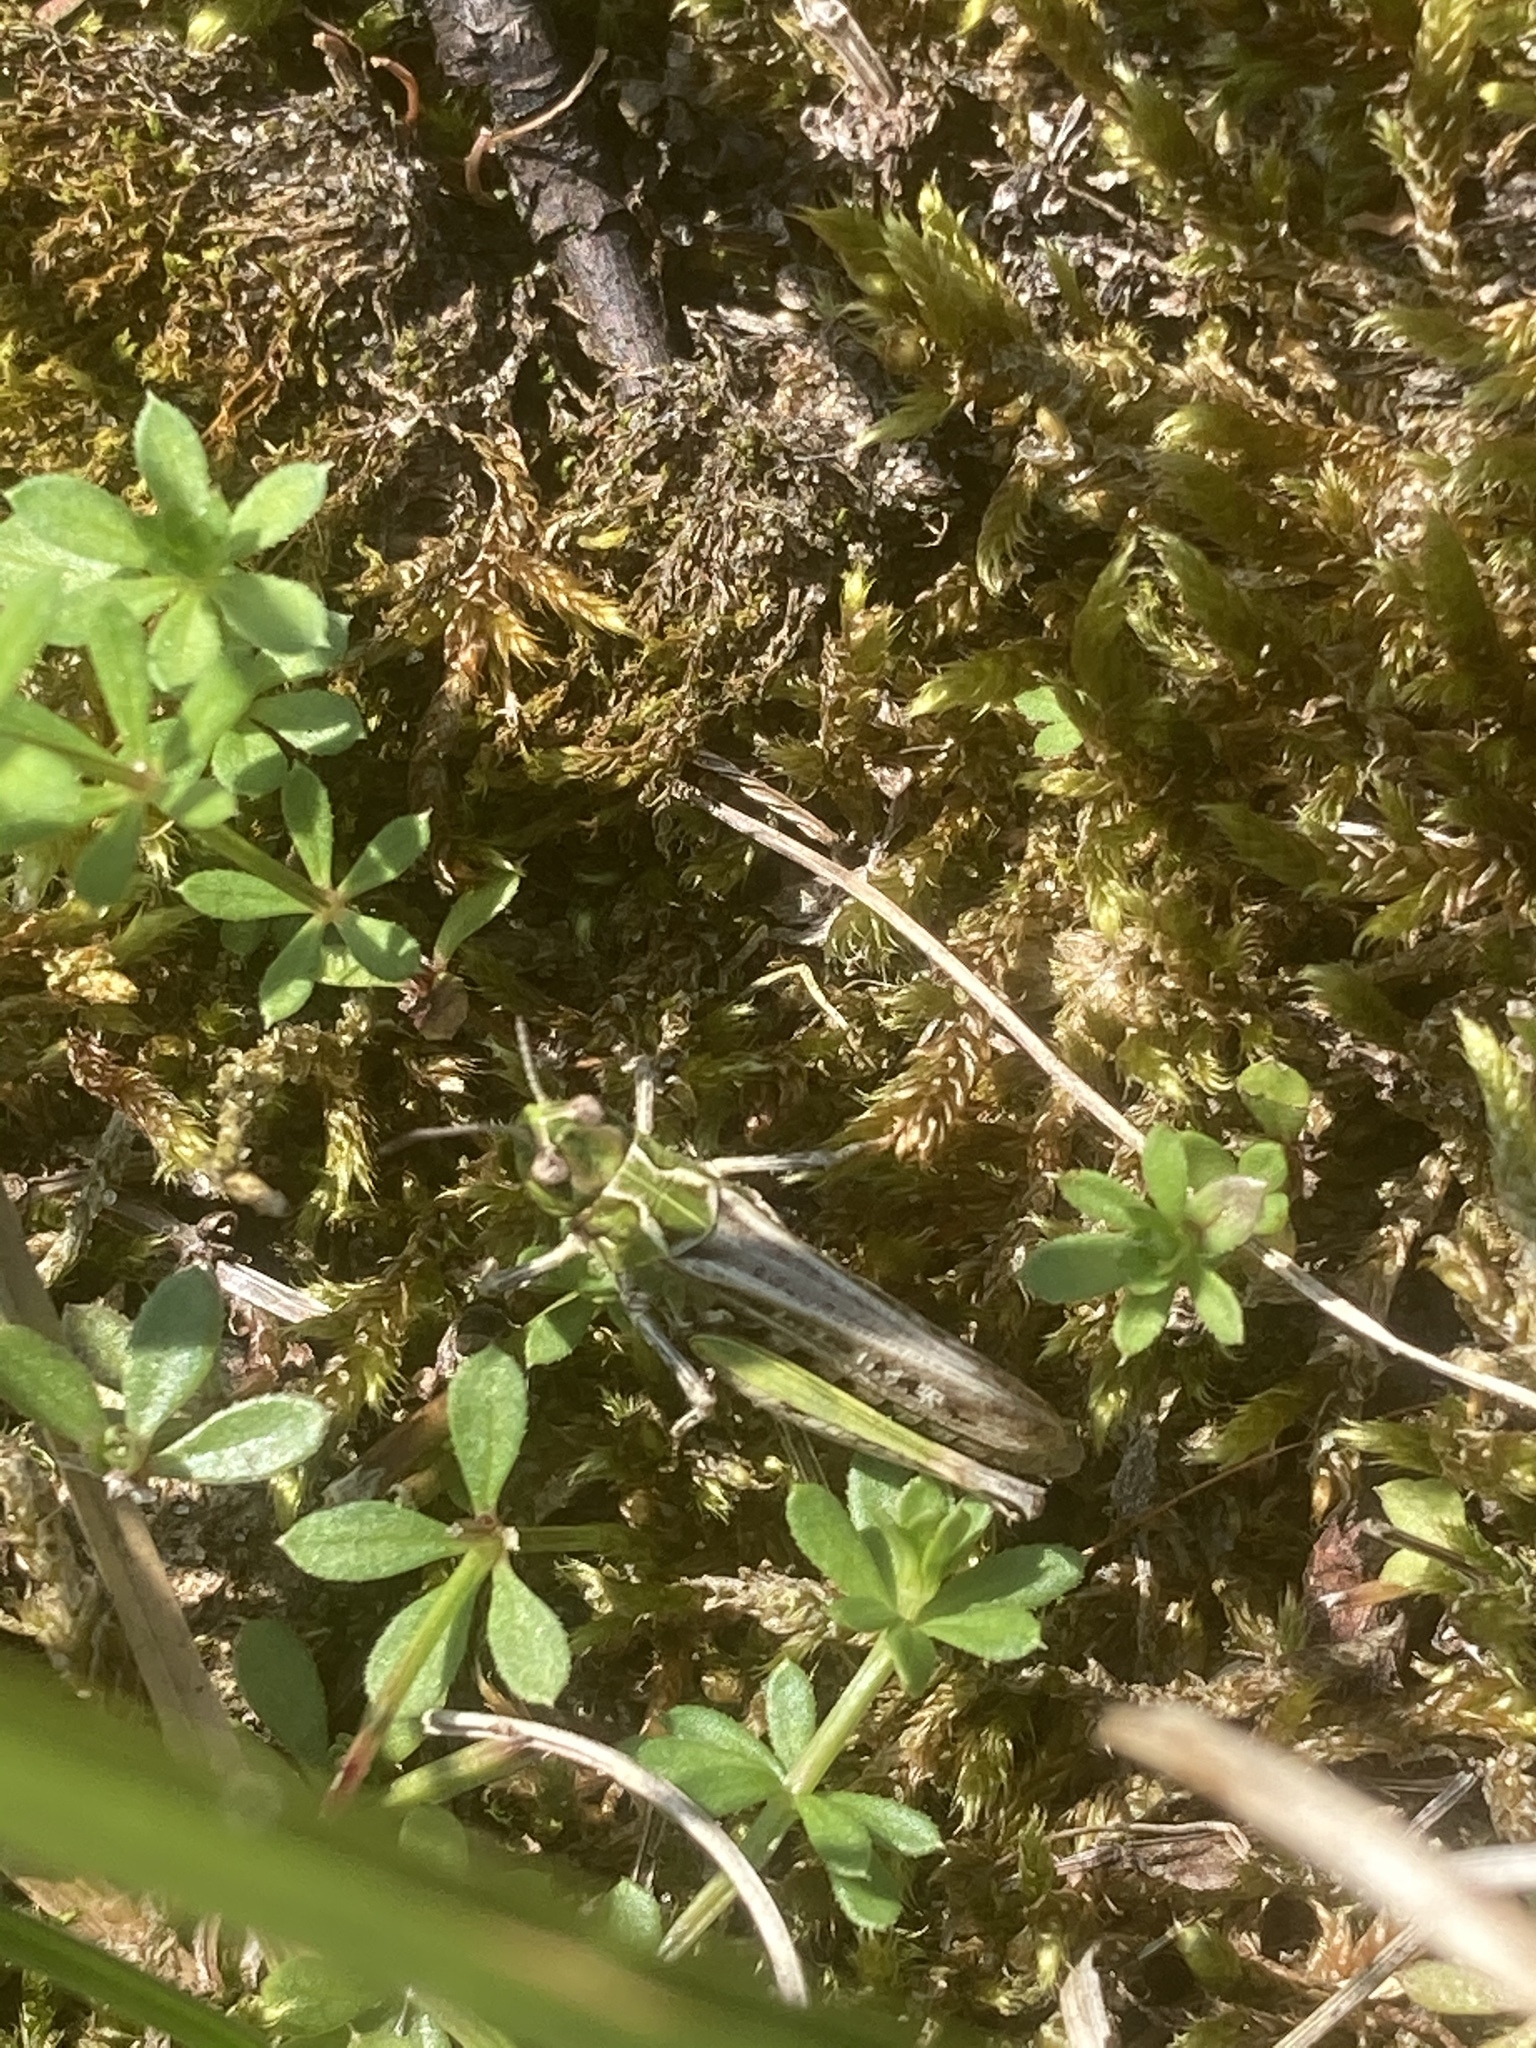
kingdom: Animalia
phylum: Arthropoda
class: Insecta
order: Orthoptera
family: Acrididae
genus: Myrmeleotettix
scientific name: Myrmeleotettix maculatus
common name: Mottled grasshopper
